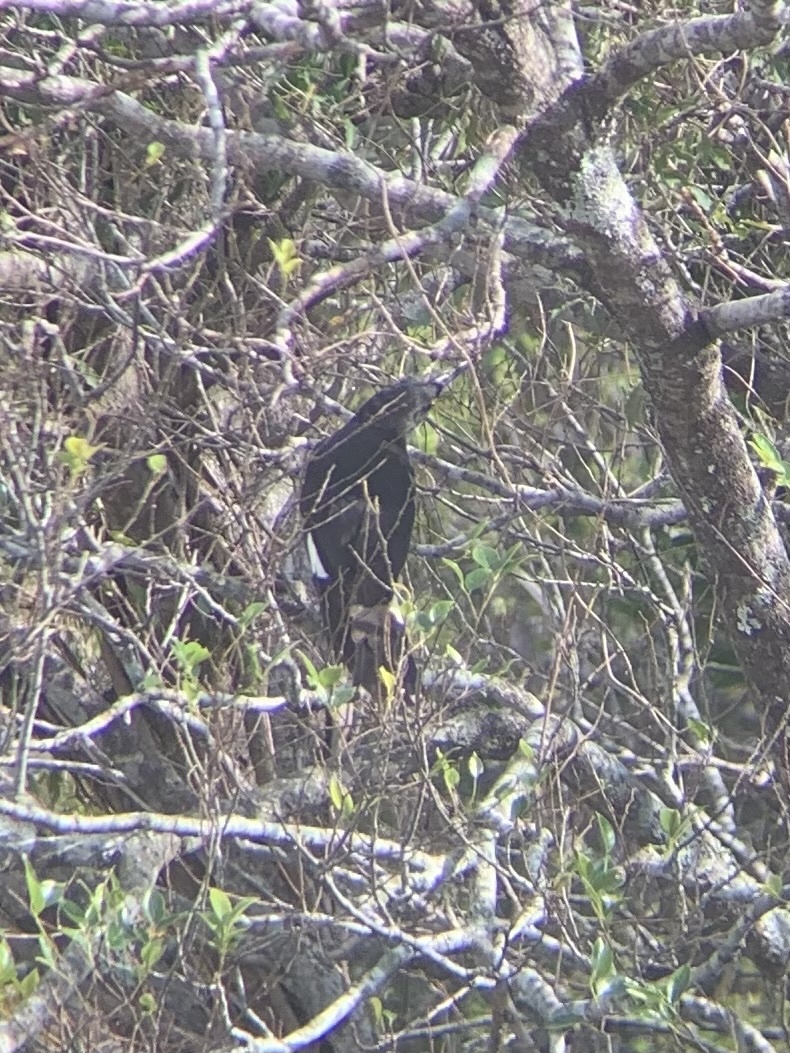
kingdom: Animalia
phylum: Chordata
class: Aves
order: Passeriformes
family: Cracticidae
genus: Strepera
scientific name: Strepera graculina
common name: Pied currawong
